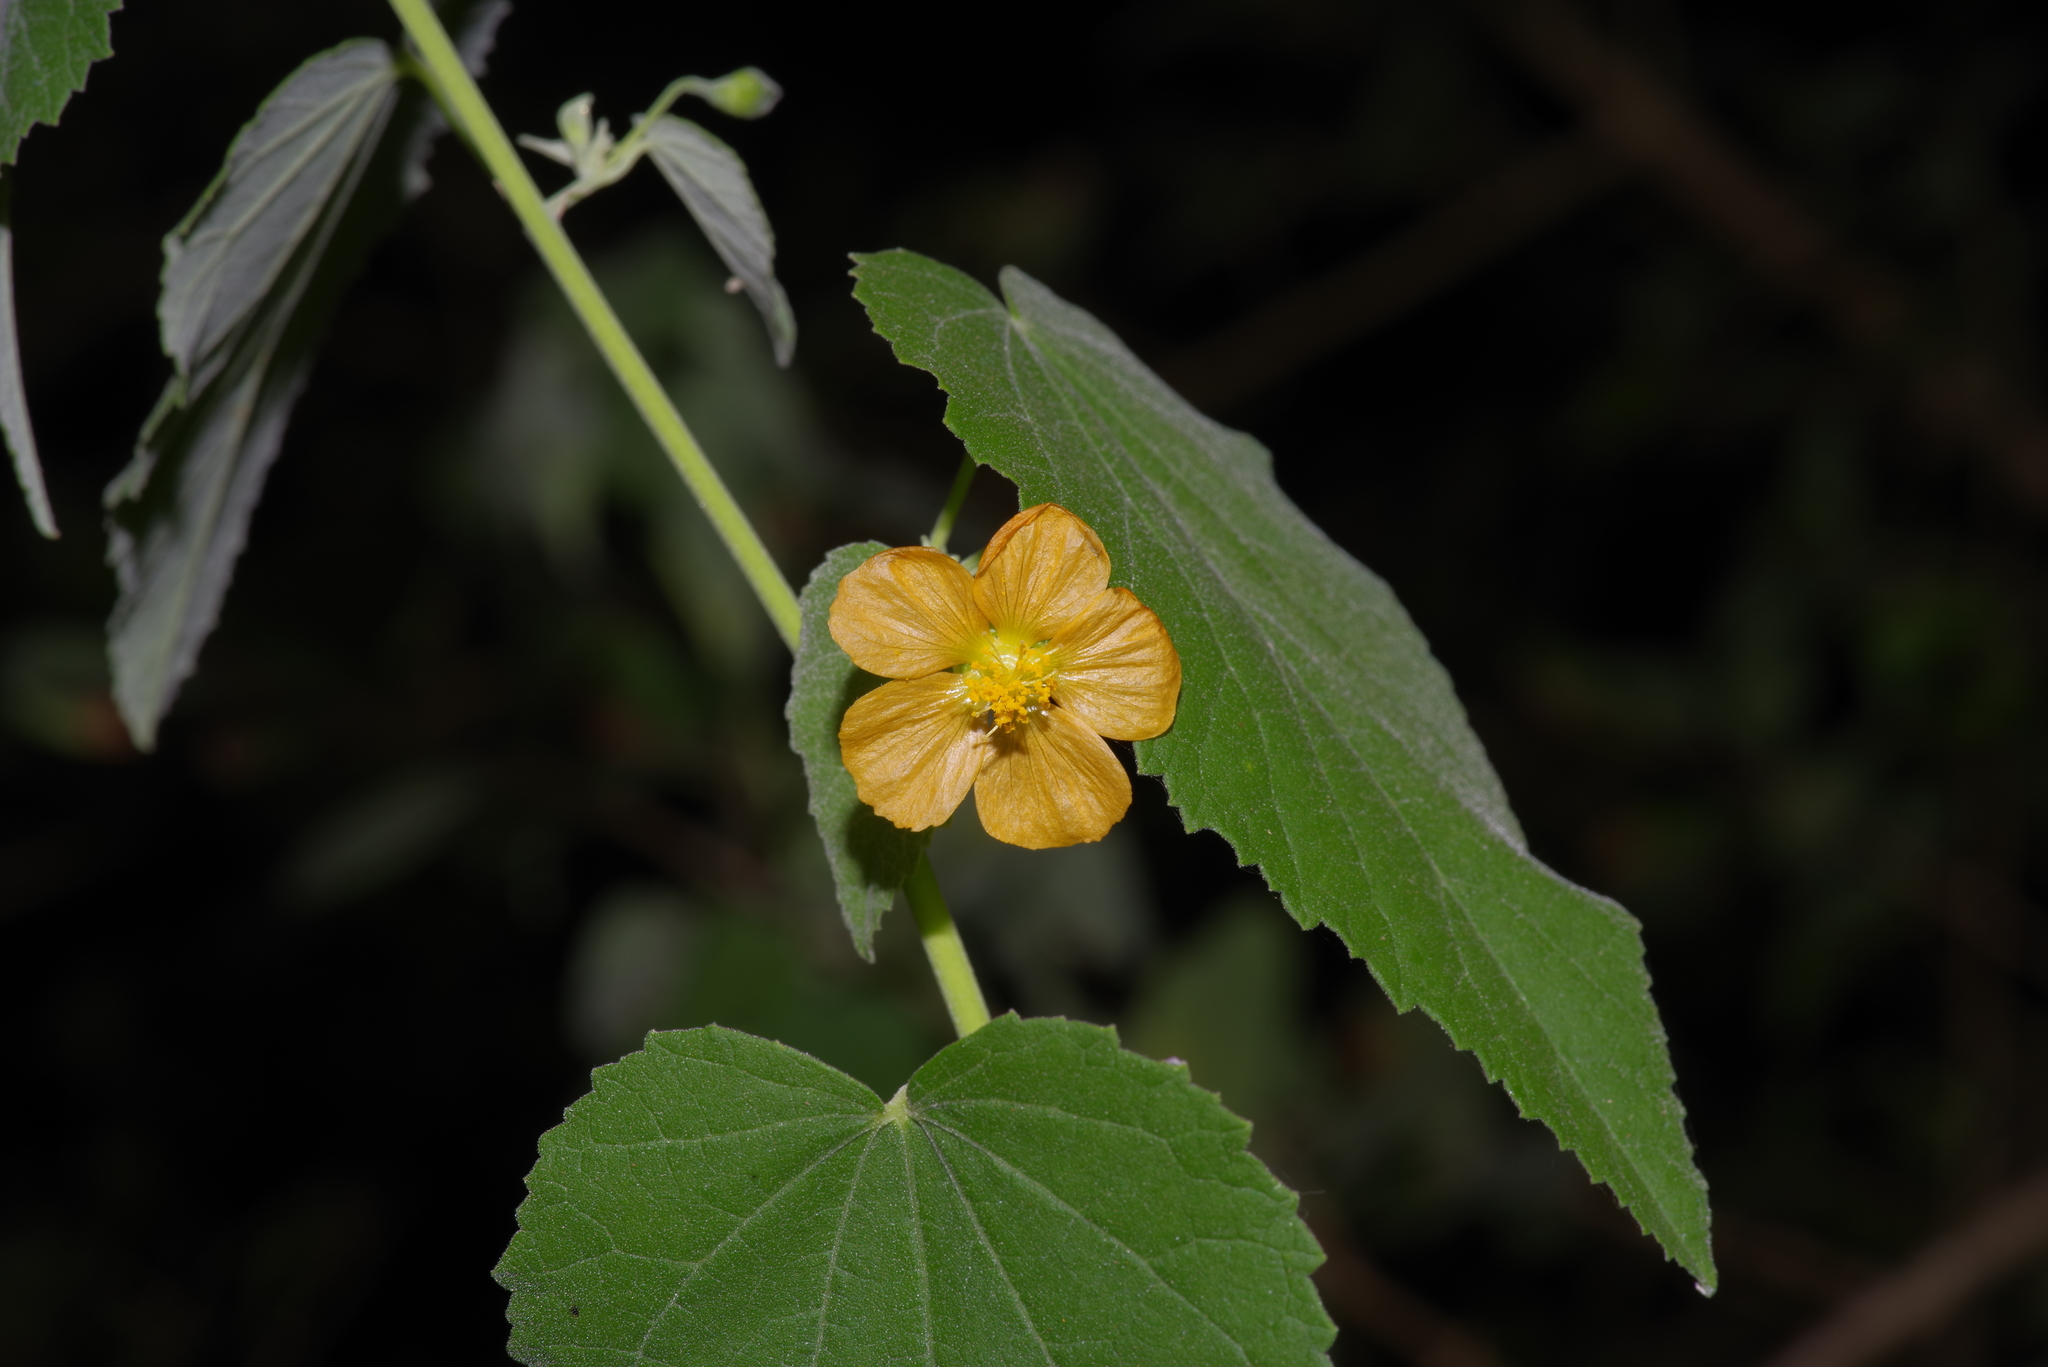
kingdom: Plantae
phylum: Tracheophyta
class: Magnoliopsida
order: Malvales
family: Malvaceae
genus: Abutilon
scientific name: Abutilon fruticosum
